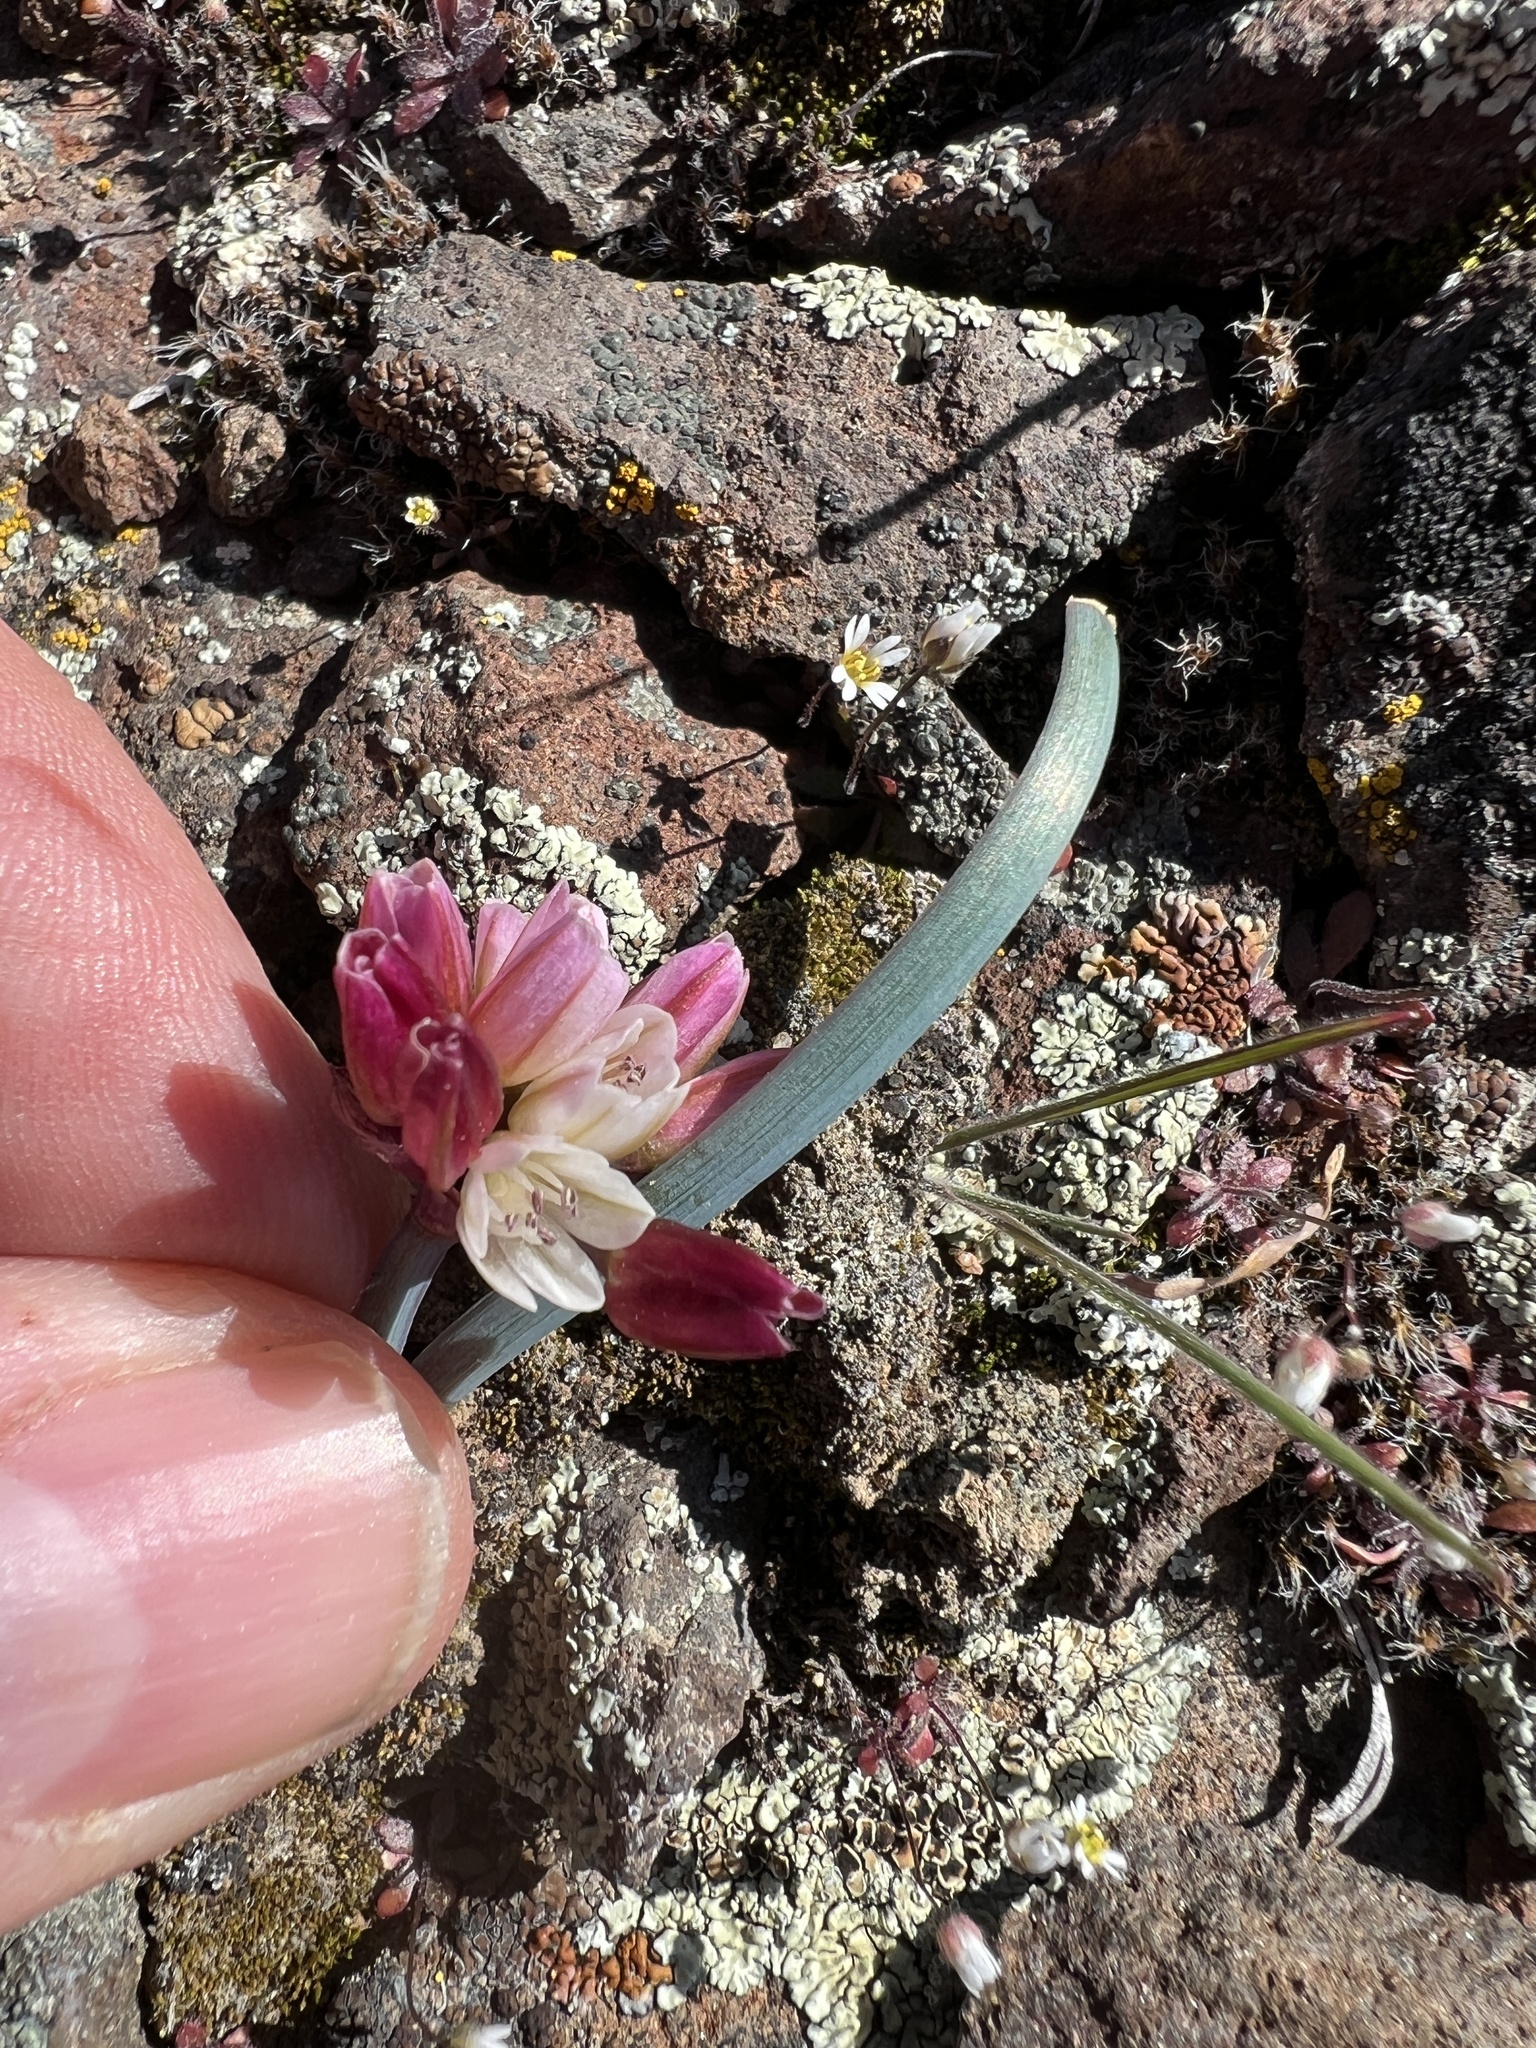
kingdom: Plantae
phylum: Tracheophyta
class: Liliopsida
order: Asparagales
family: Amaryllidaceae
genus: Allium
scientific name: Allium scilloides
